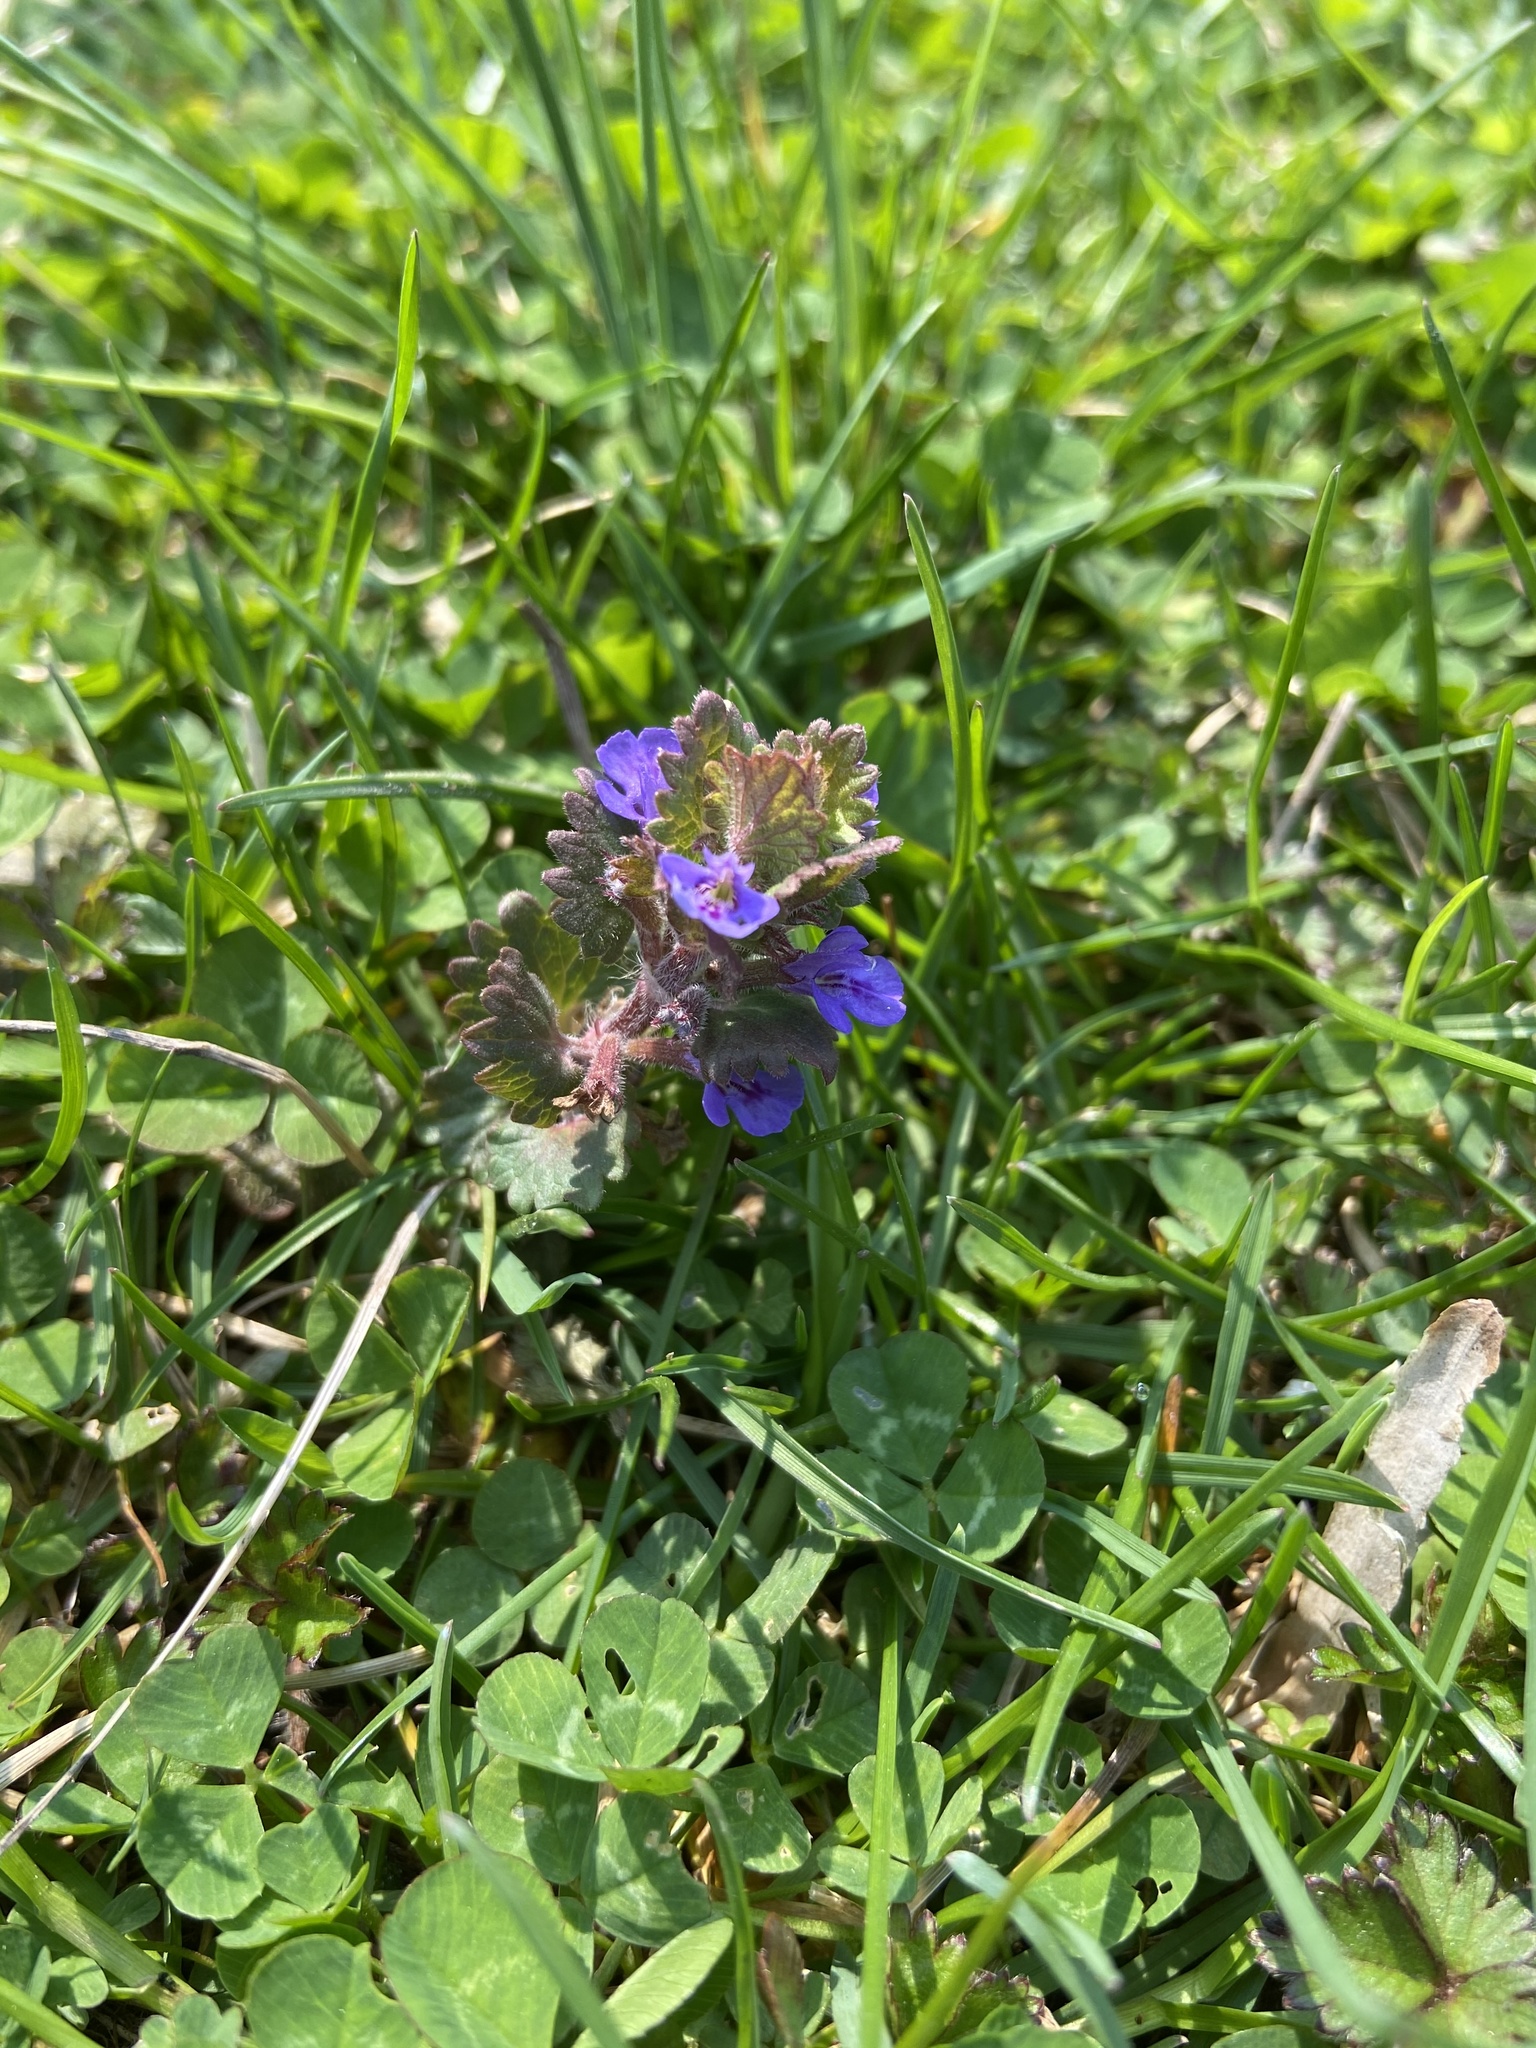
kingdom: Plantae
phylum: Tracheophyta
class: Magnoliopsida
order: Lamiales
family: Lamiaceae
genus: Glechoma
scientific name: Glechoma hederacea
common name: Ground ivy
